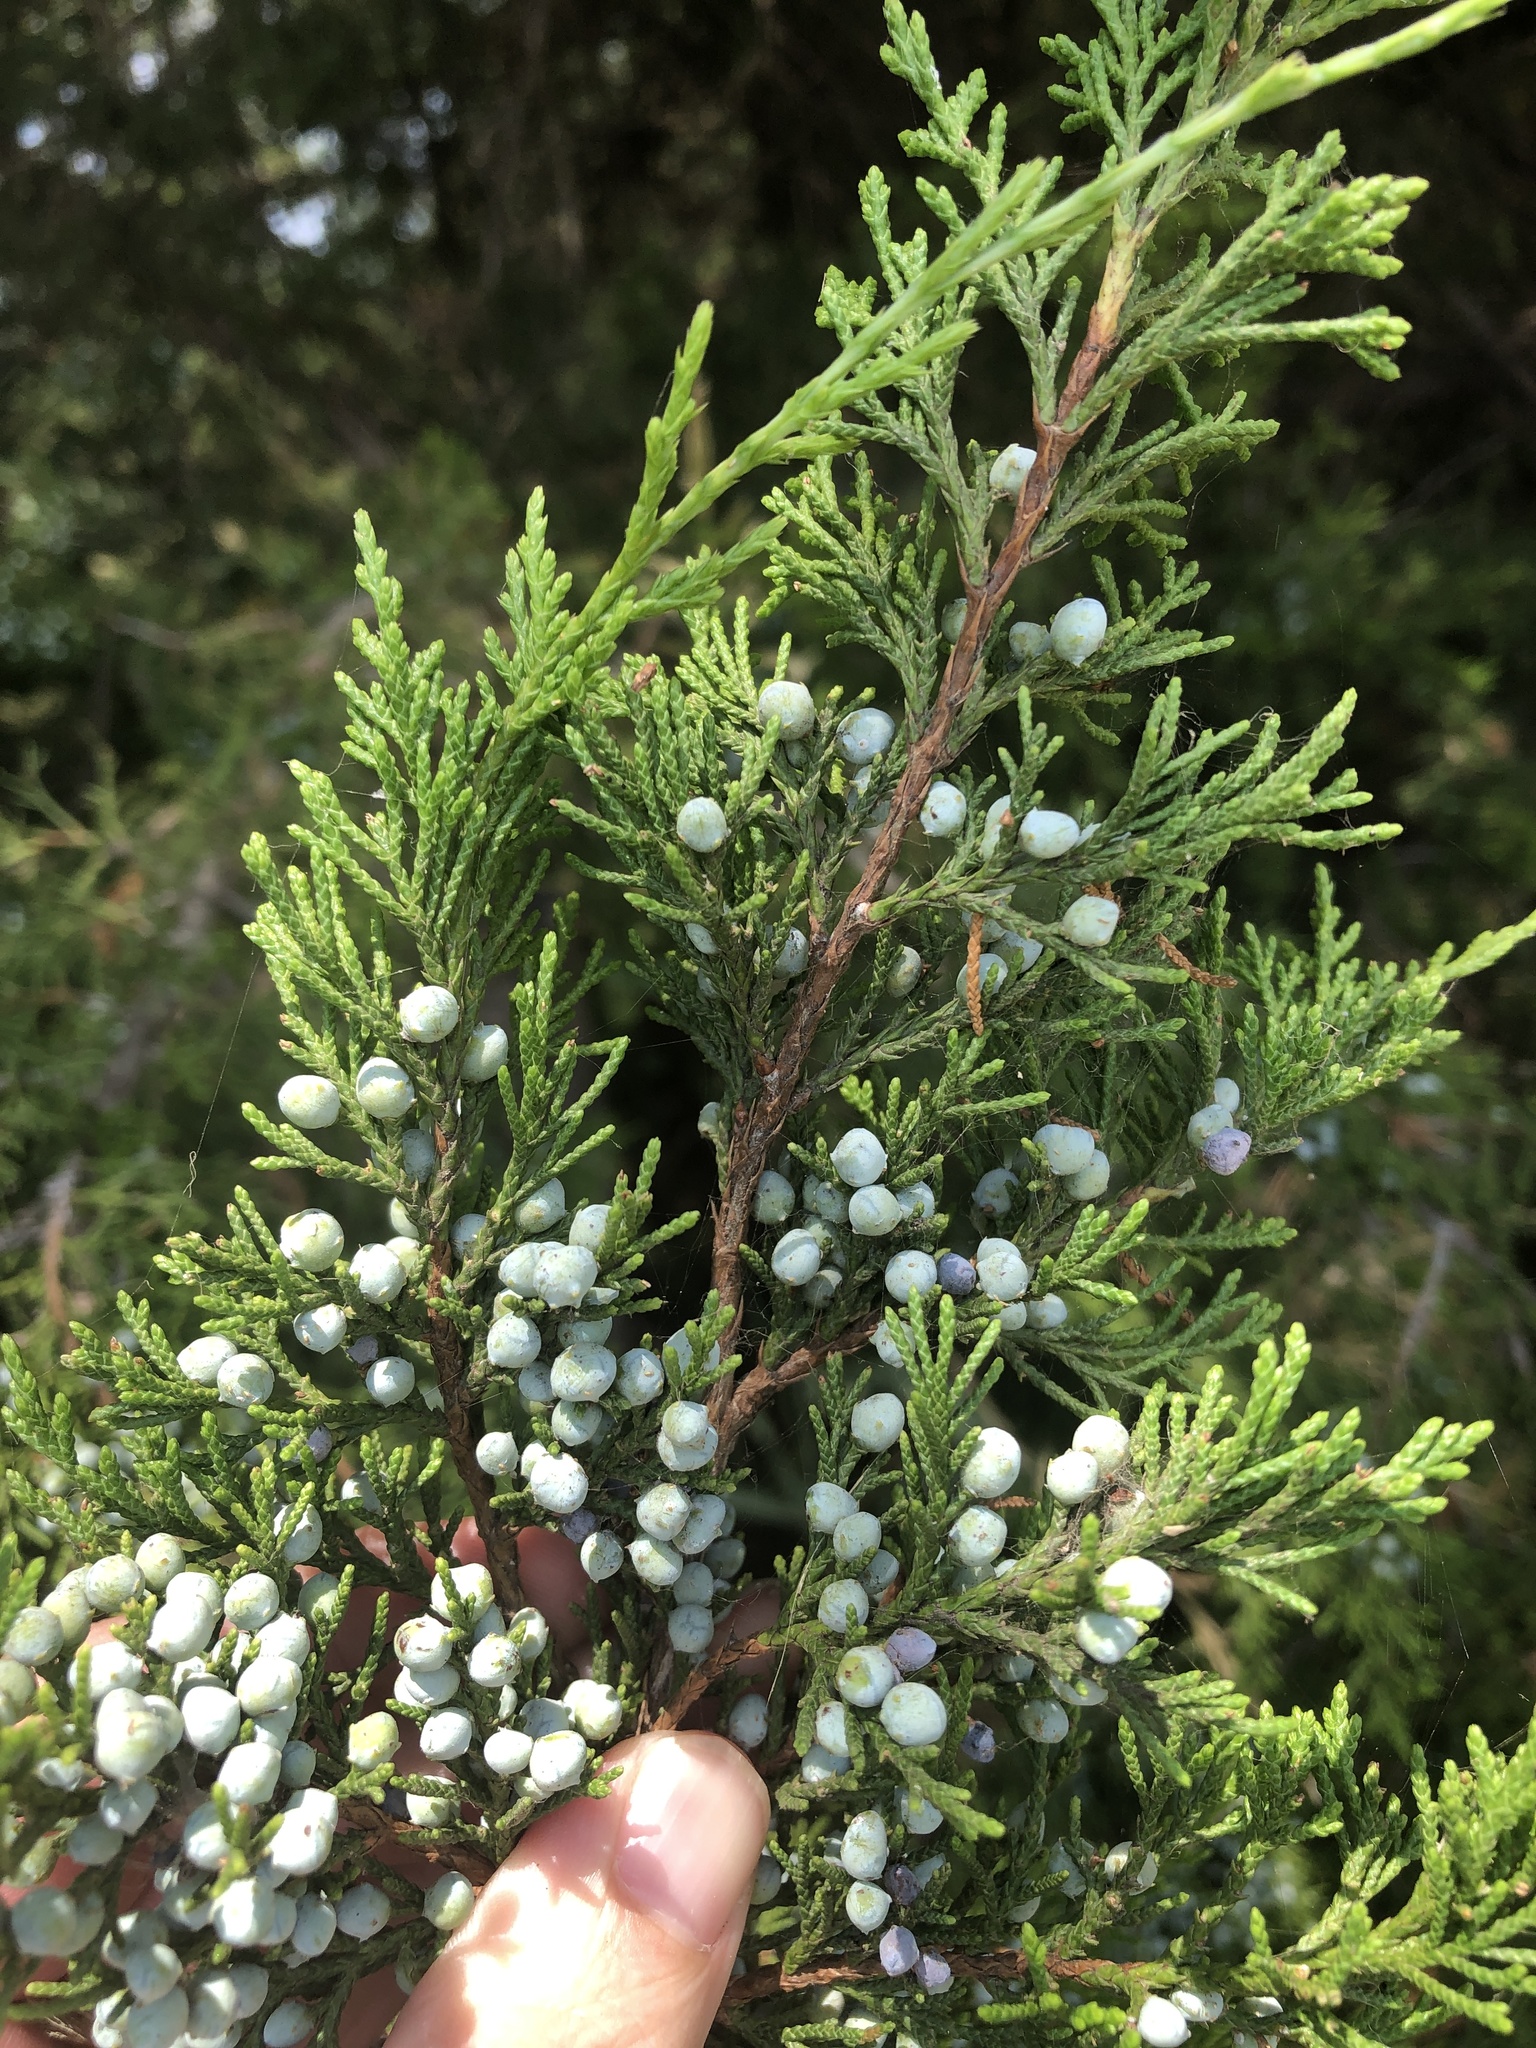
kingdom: Plantae
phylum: Tracheophyta
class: Pinopsida
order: Pinales
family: Cupressaceae
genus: Juniperus
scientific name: Juniperus virginiana
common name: Red juniper
